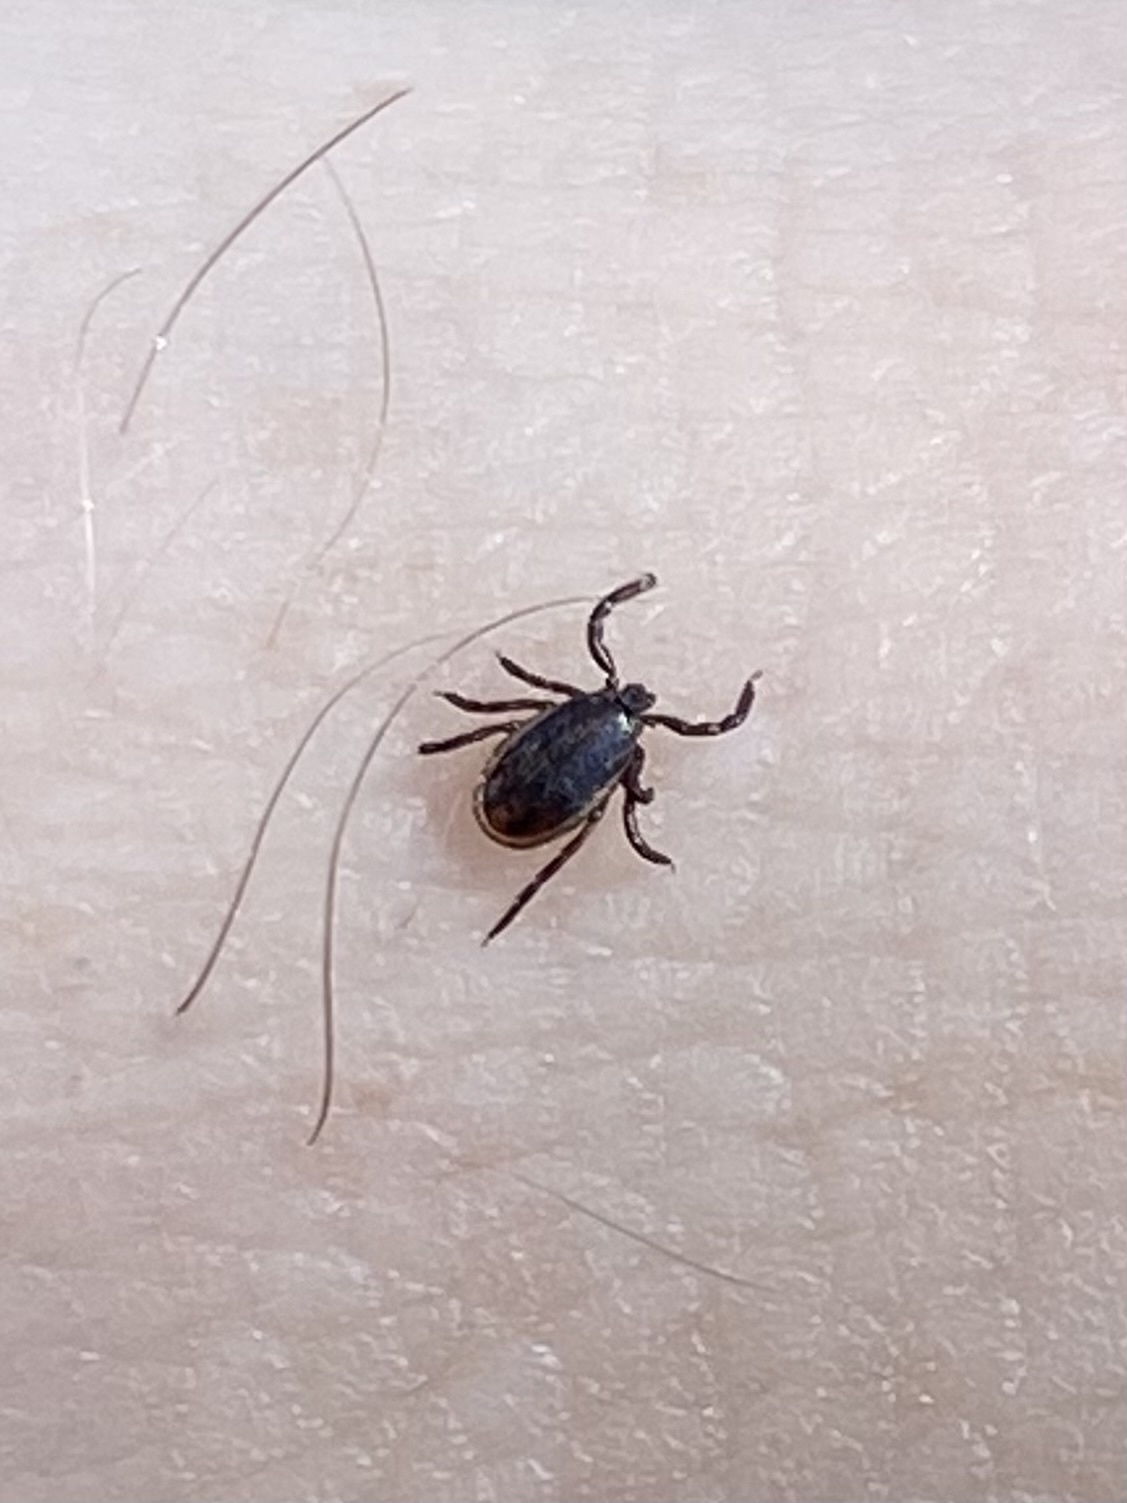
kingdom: Animalia
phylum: Arthropoda
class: Arachnida
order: Ixodida
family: Ixodidae
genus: Ixodes
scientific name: Ixodes scapularis
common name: Black legged tick
